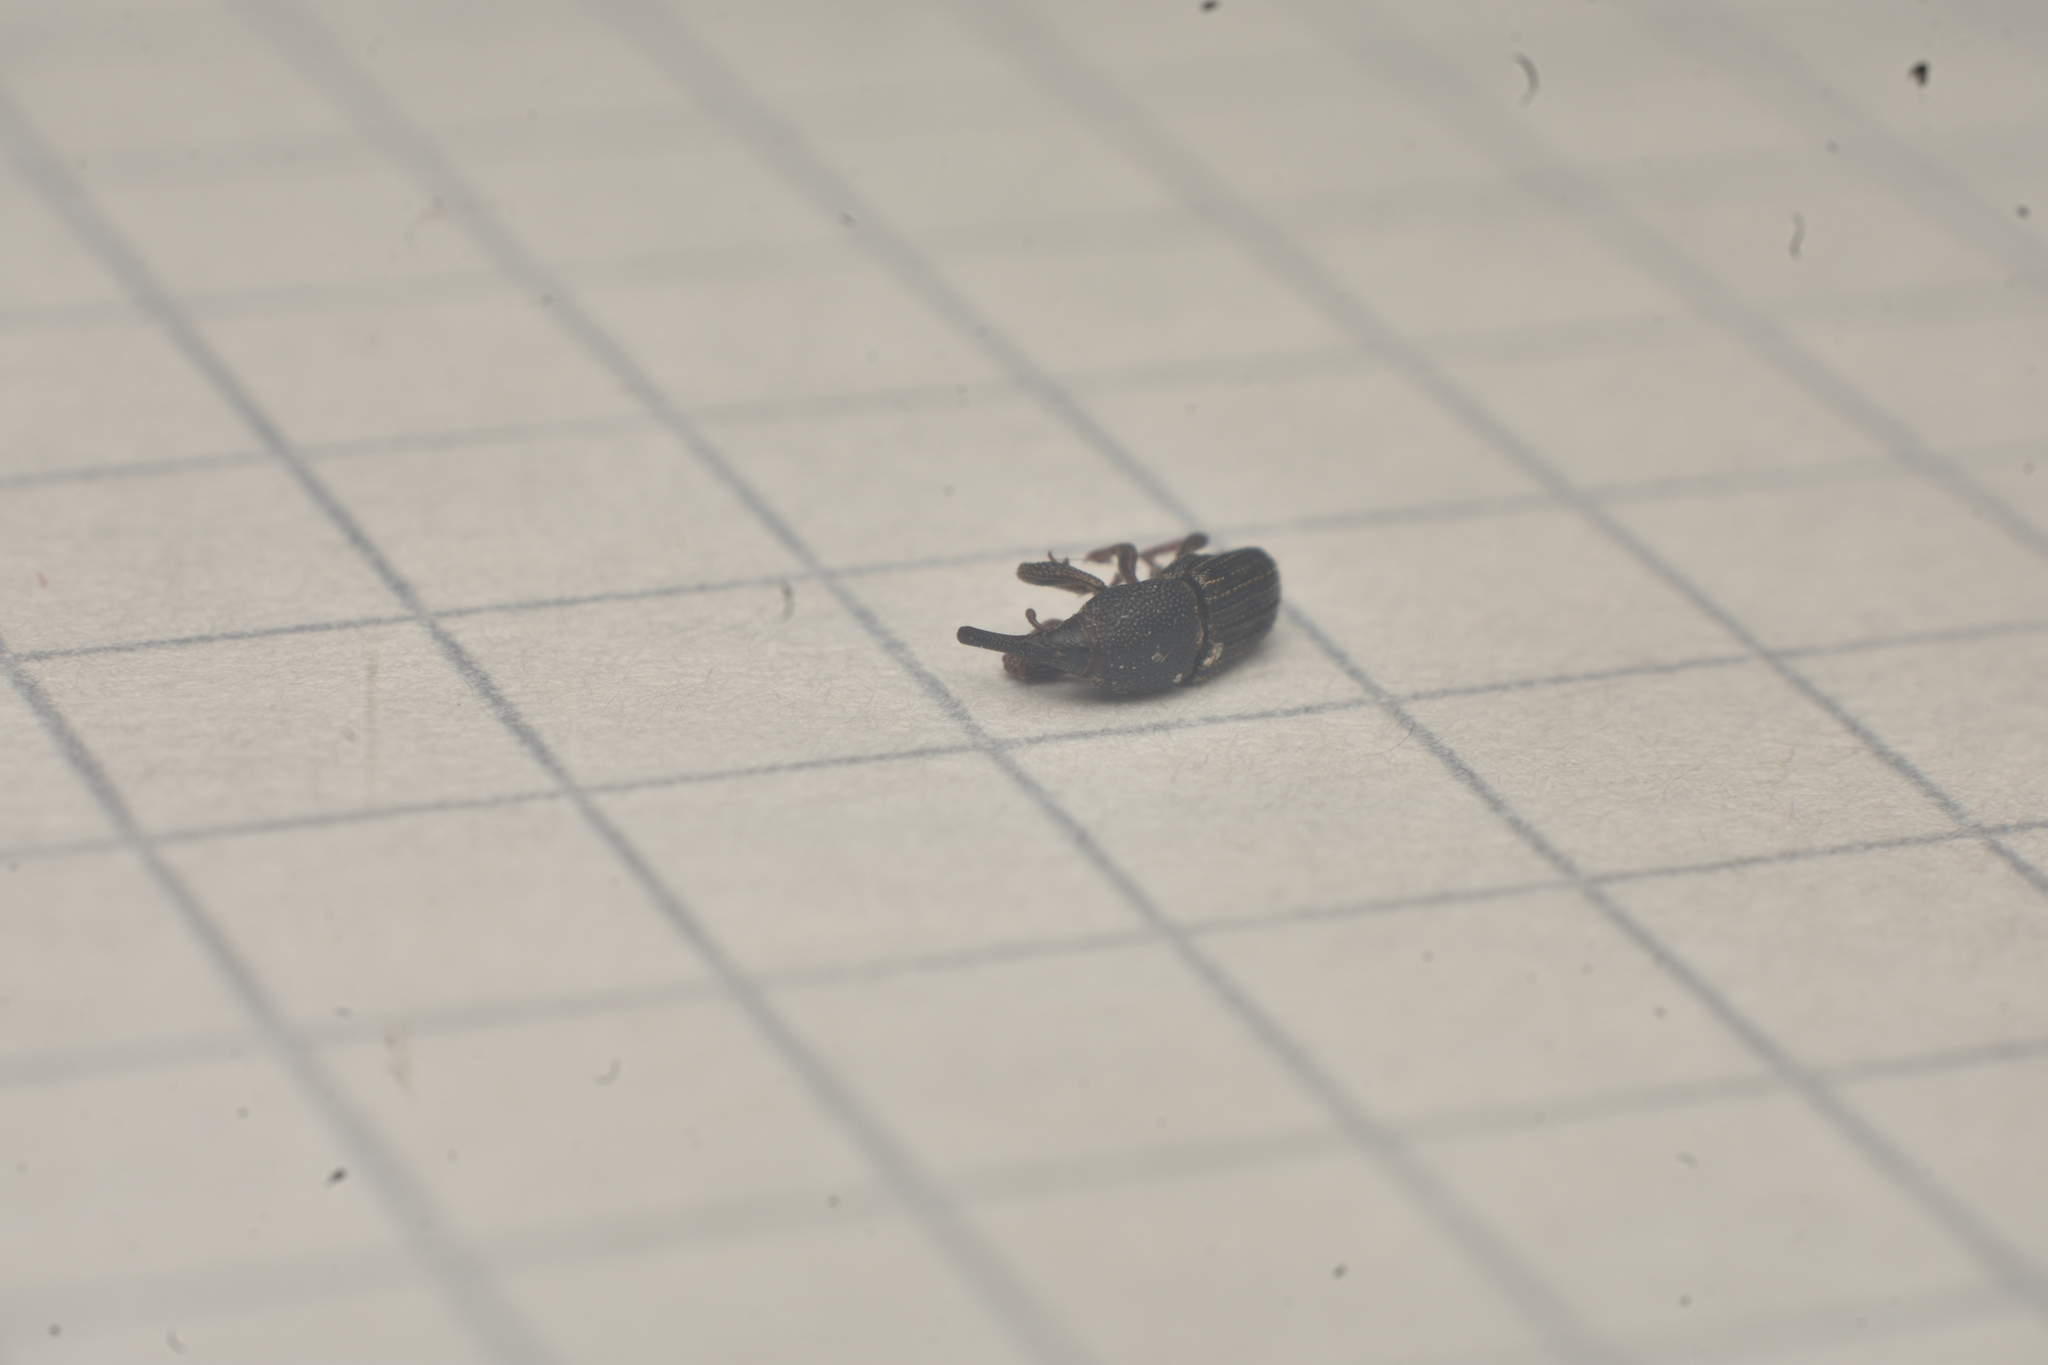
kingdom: Animalia
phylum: Arthropoda
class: Insecta
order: Coleoptera
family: Dryophthoridae
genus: Sitophilus
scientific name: Sitophilus
